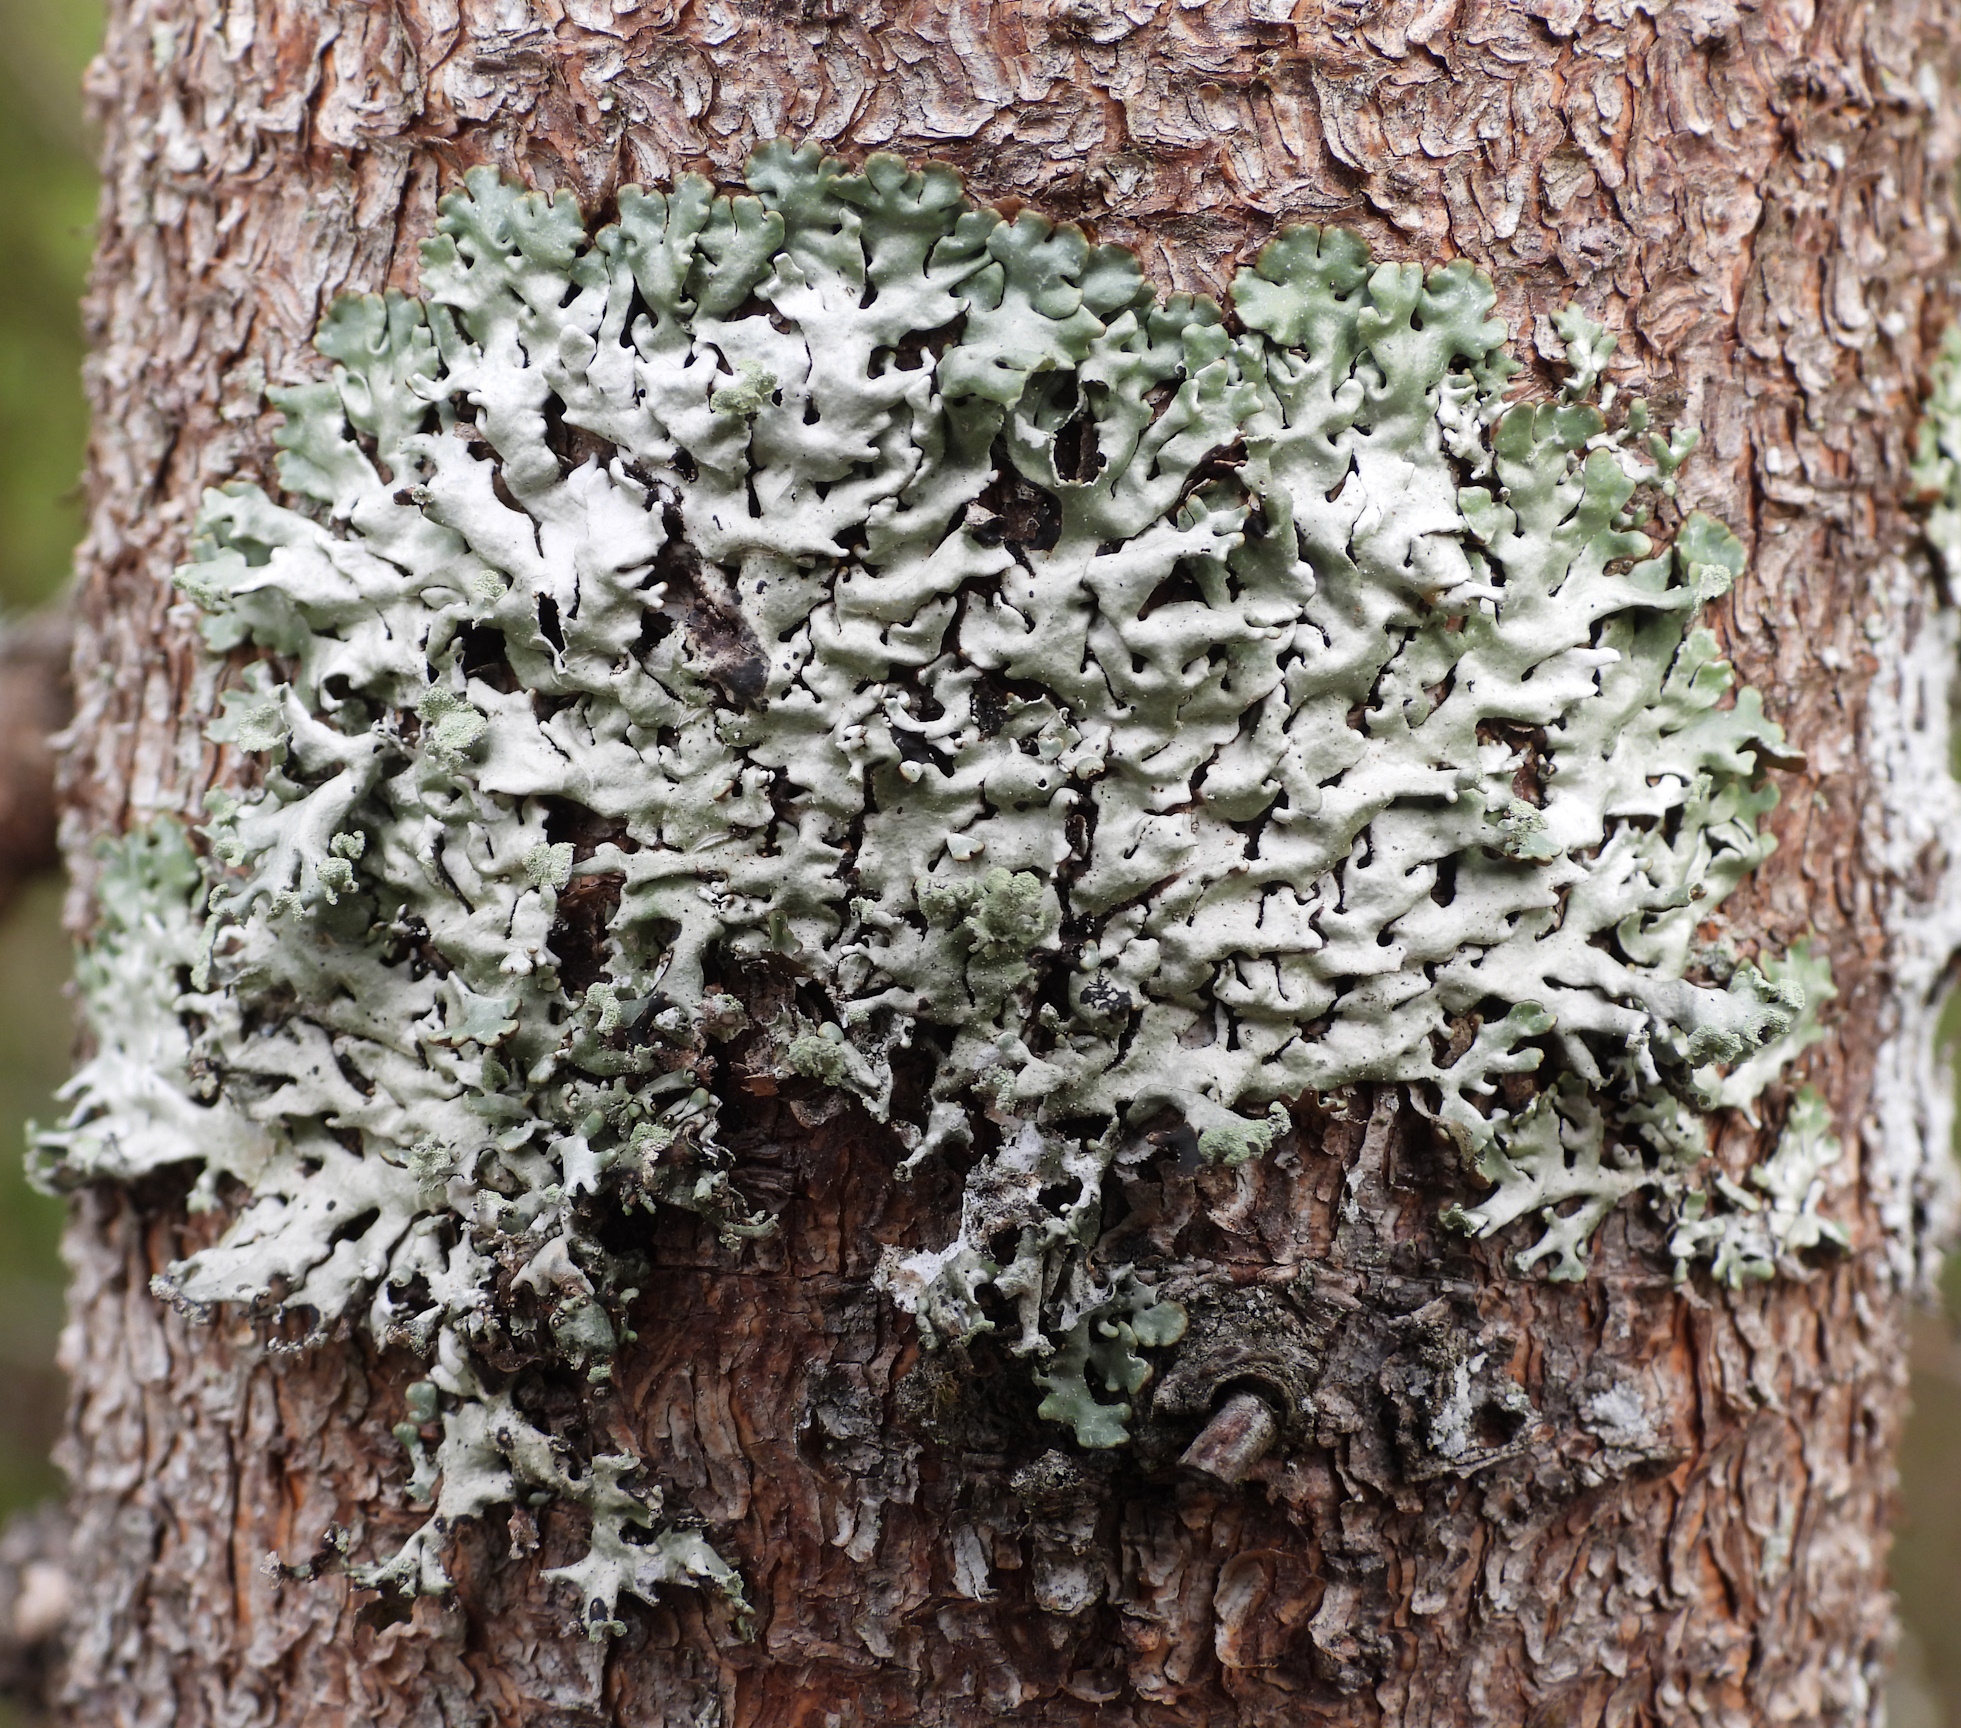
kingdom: Fungi
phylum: Ascomycota
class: Lecanoromycetes
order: Lecanorales
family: Parmeliaceae
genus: Hypogymnia
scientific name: Hypogymnia physodes
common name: Dark crottle
